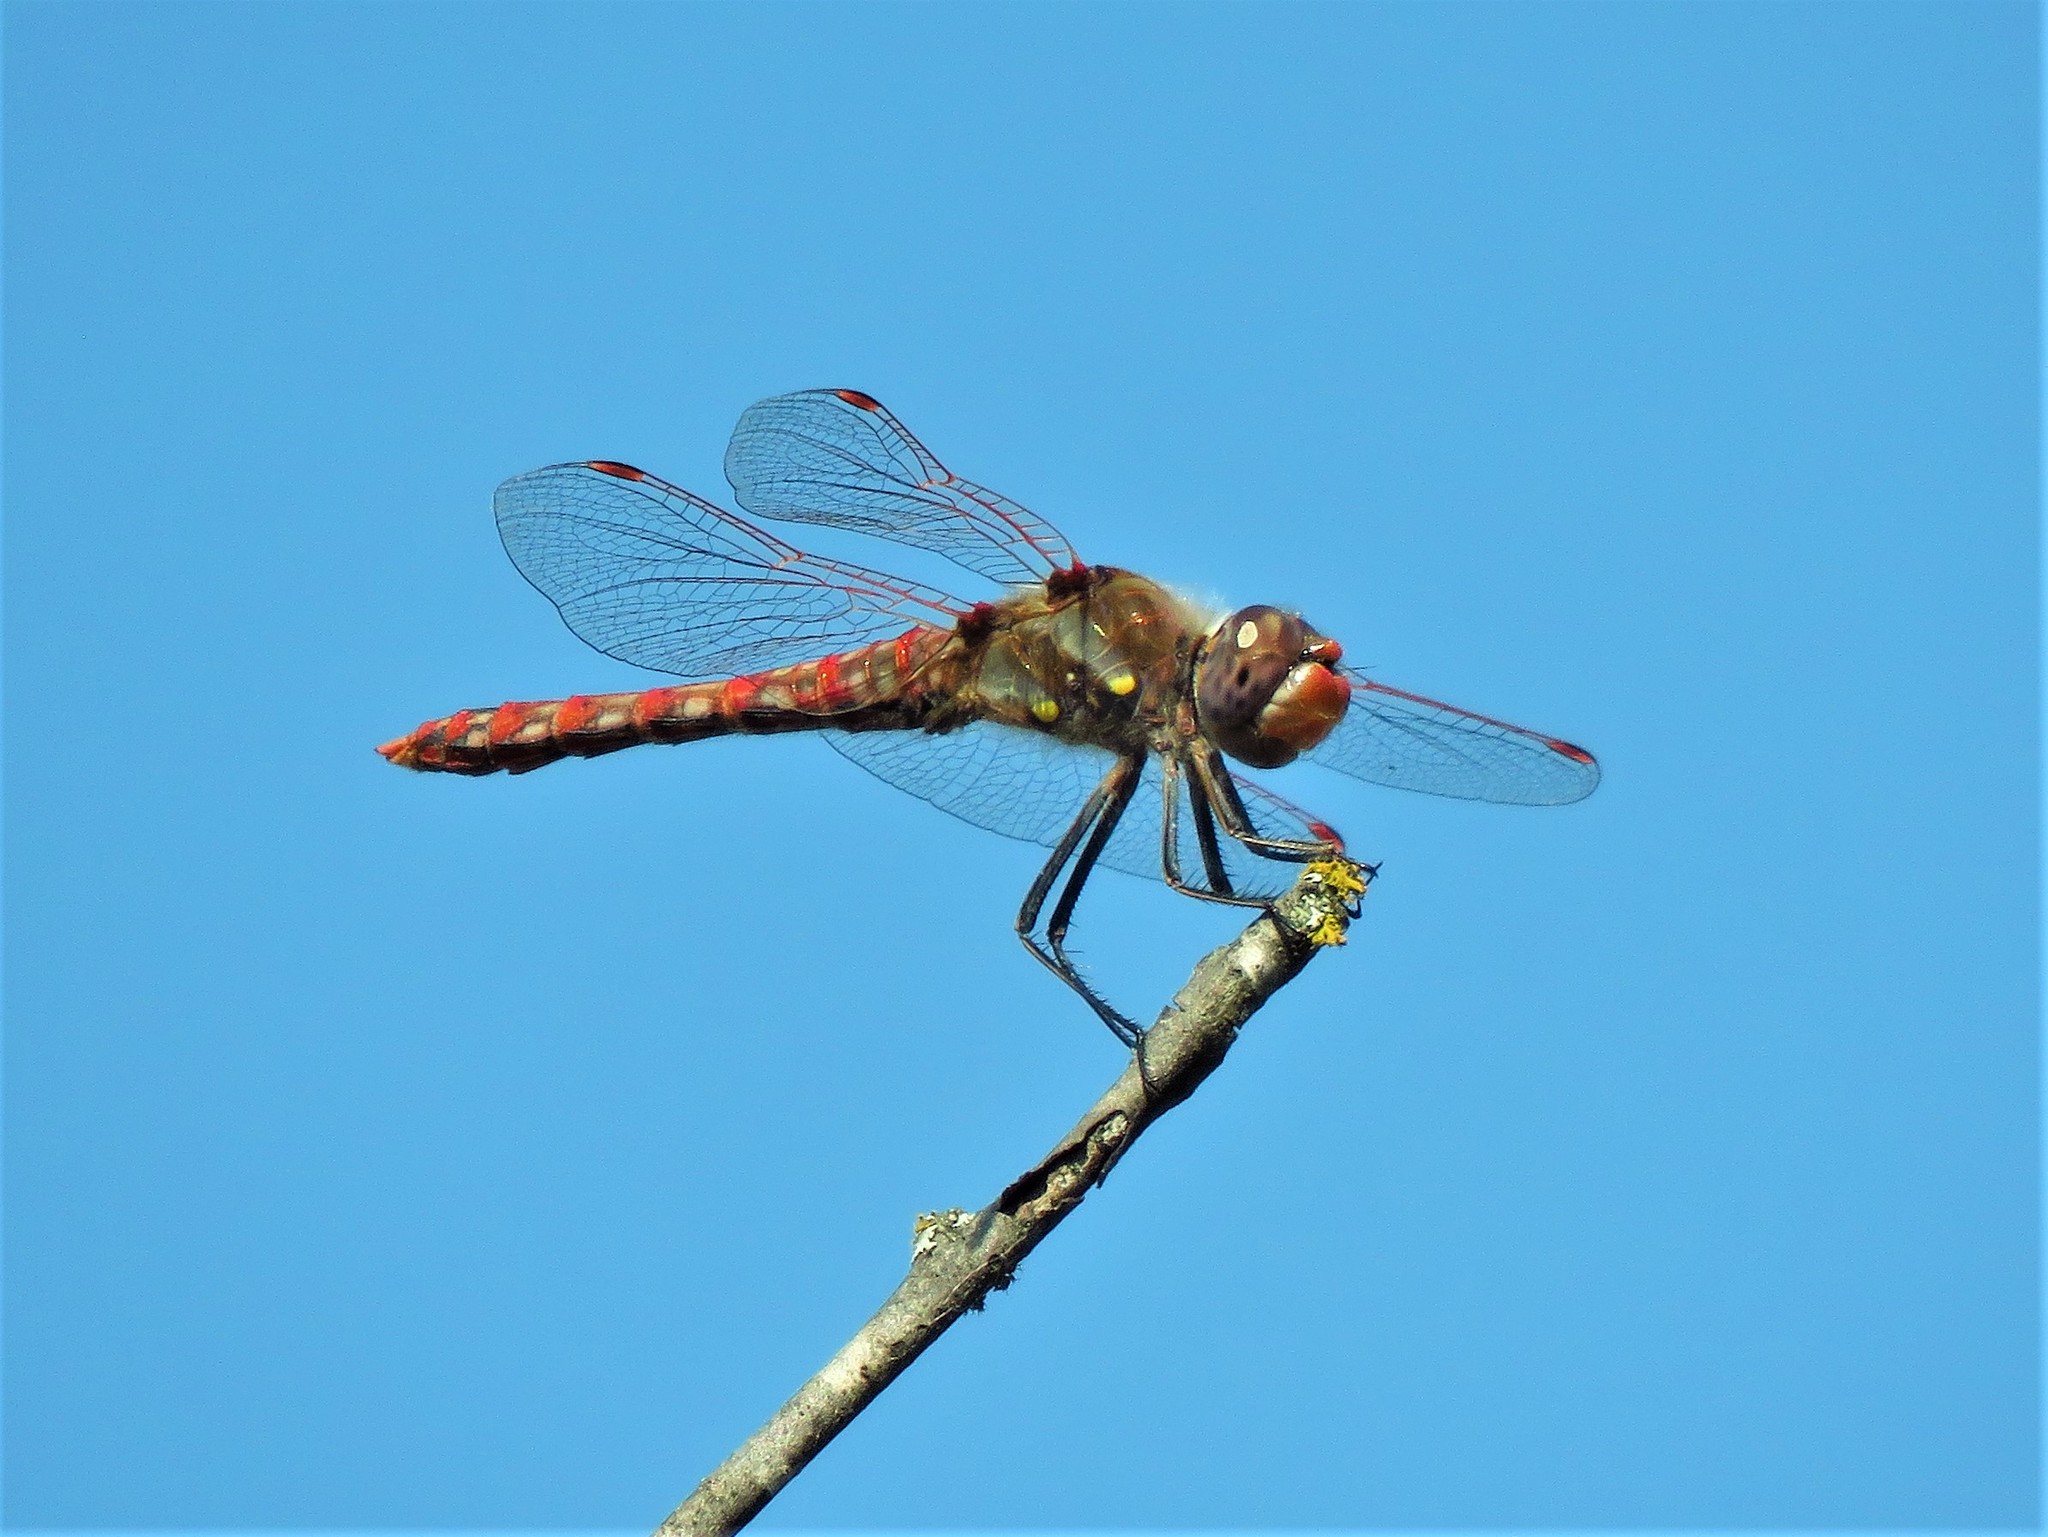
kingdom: Animalia
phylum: Arthropoda
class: Insecta
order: Odonata
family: Libellulidae
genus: Sympetrum
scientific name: Sympetrum corruptum
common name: Variegated meadowhawk
